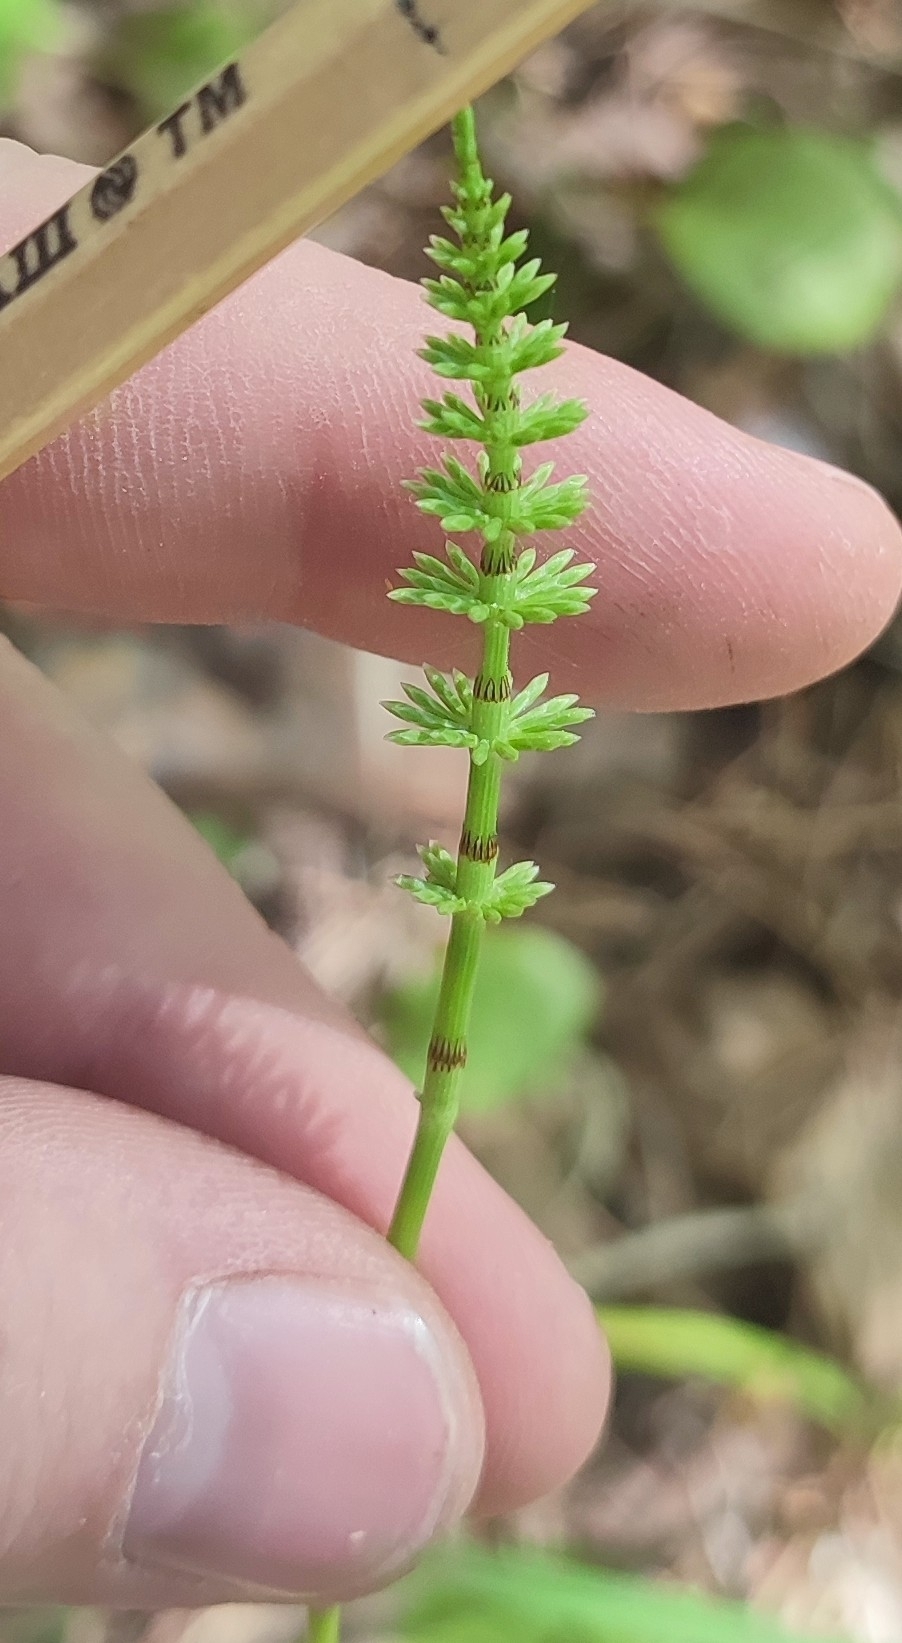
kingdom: Plantae
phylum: Tracheophyta
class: Polypodiopsida
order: Equisetales
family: Equisetaceae
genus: Equisetum
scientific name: Equisetum pratense
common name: Meadow horsetail
